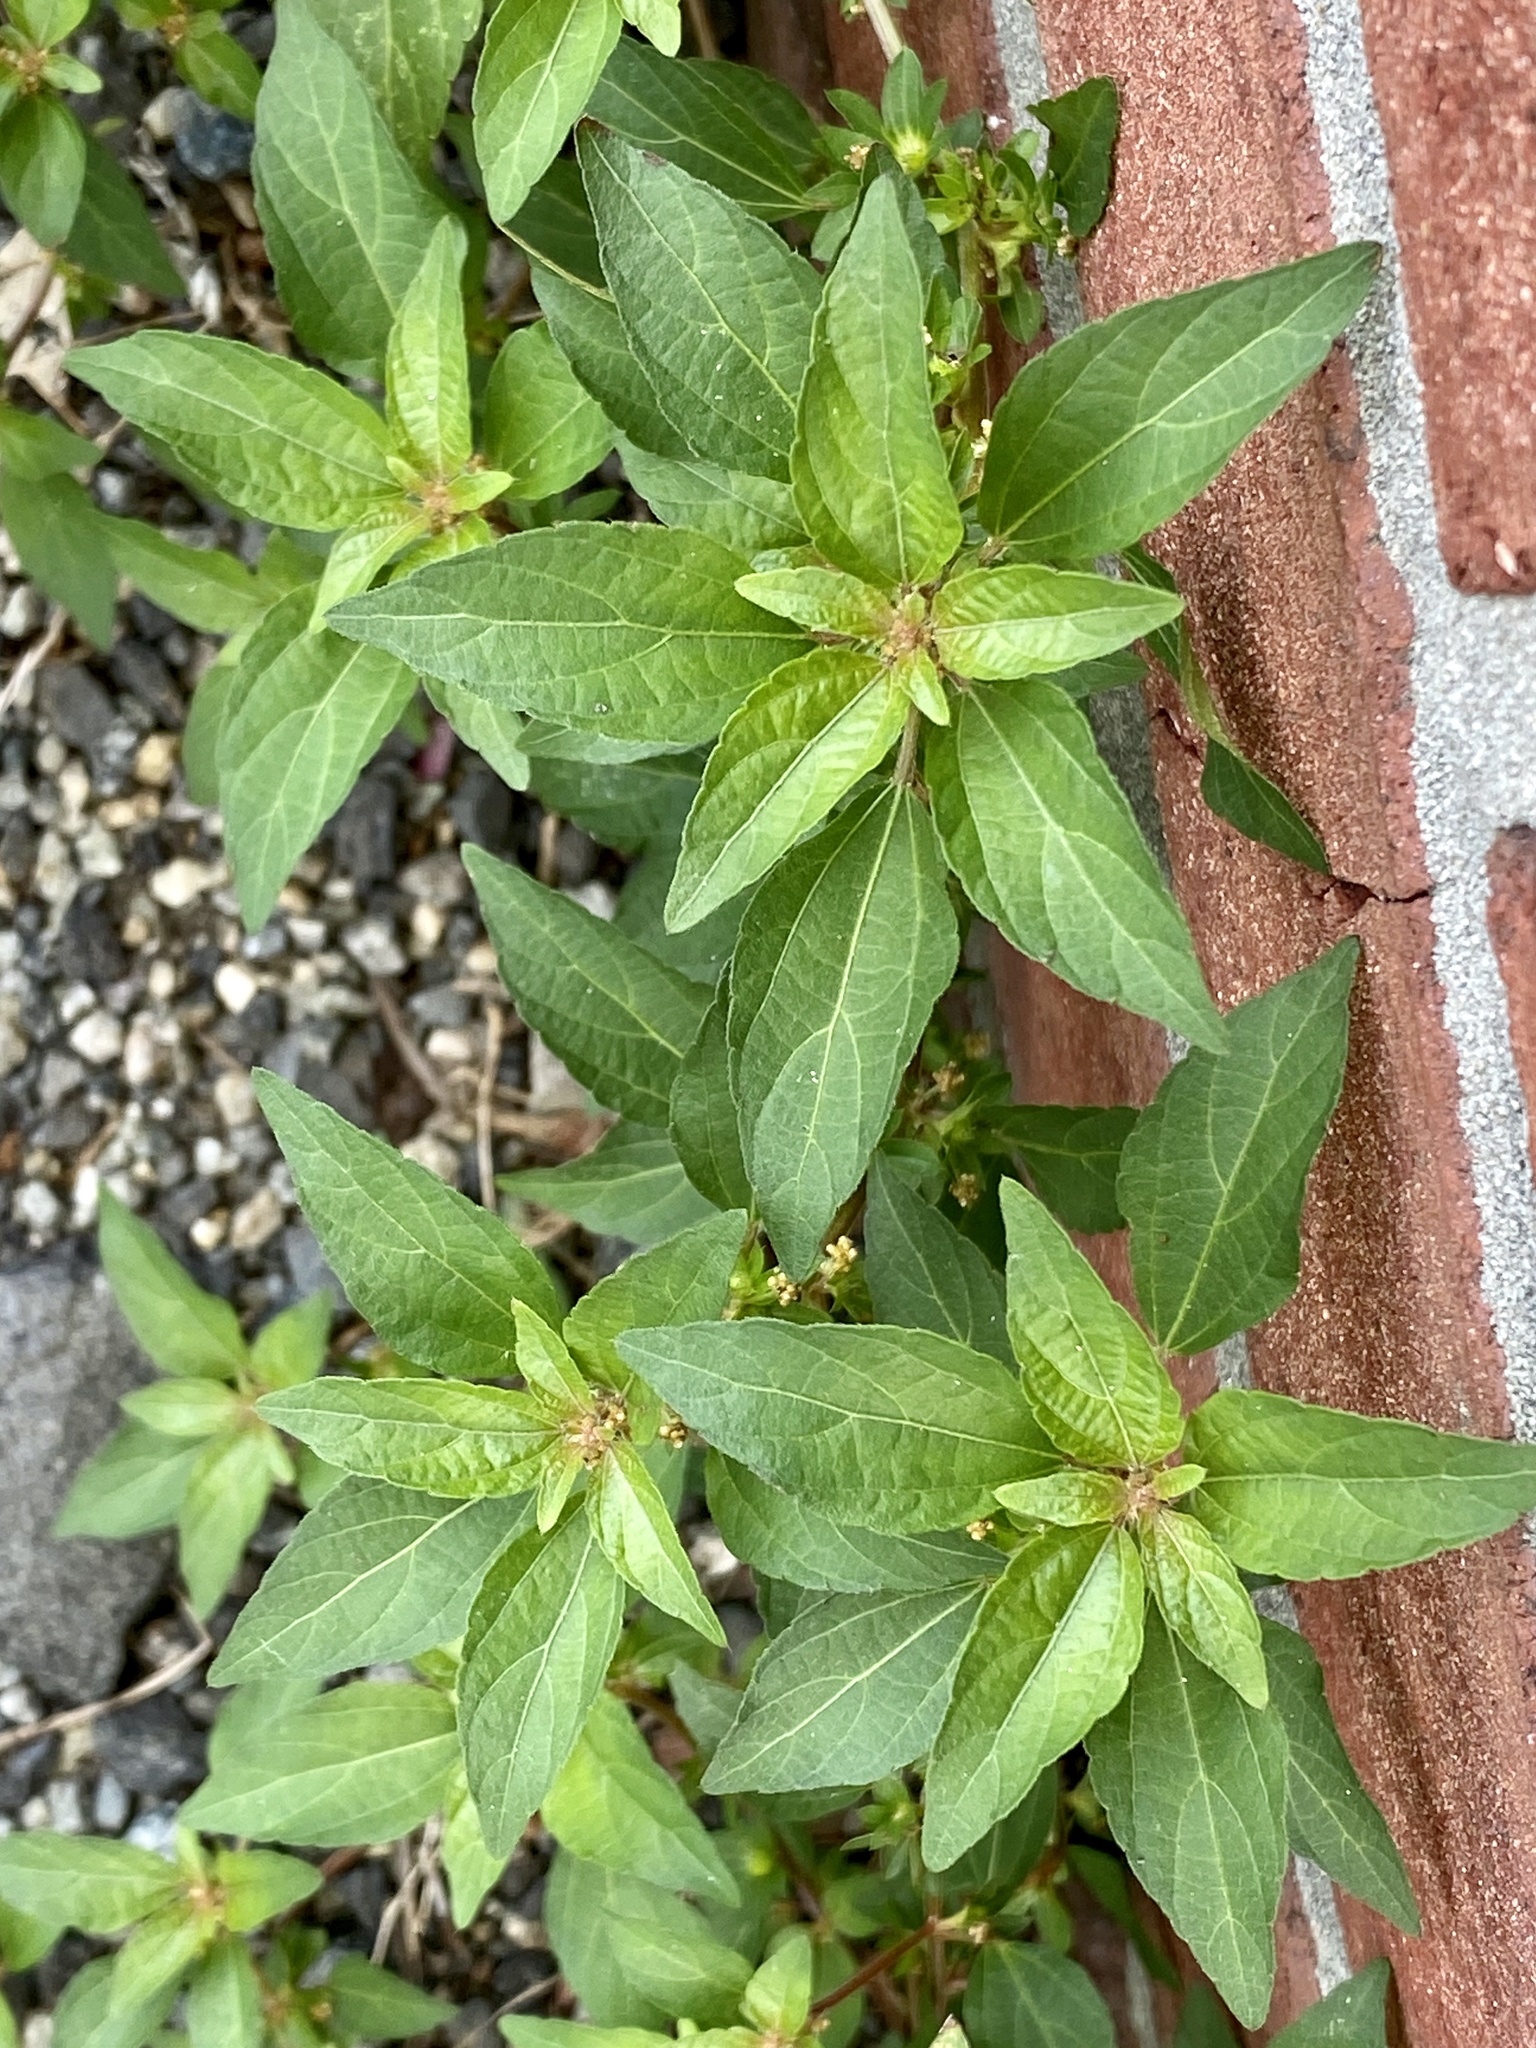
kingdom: Plantae
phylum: Tracheophyta
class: Magnoliopsida
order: Malpighiales
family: Euphorbiaceae
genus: Acalypha
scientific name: Acalypha rhomboidea
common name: Rhombic copperleaf
